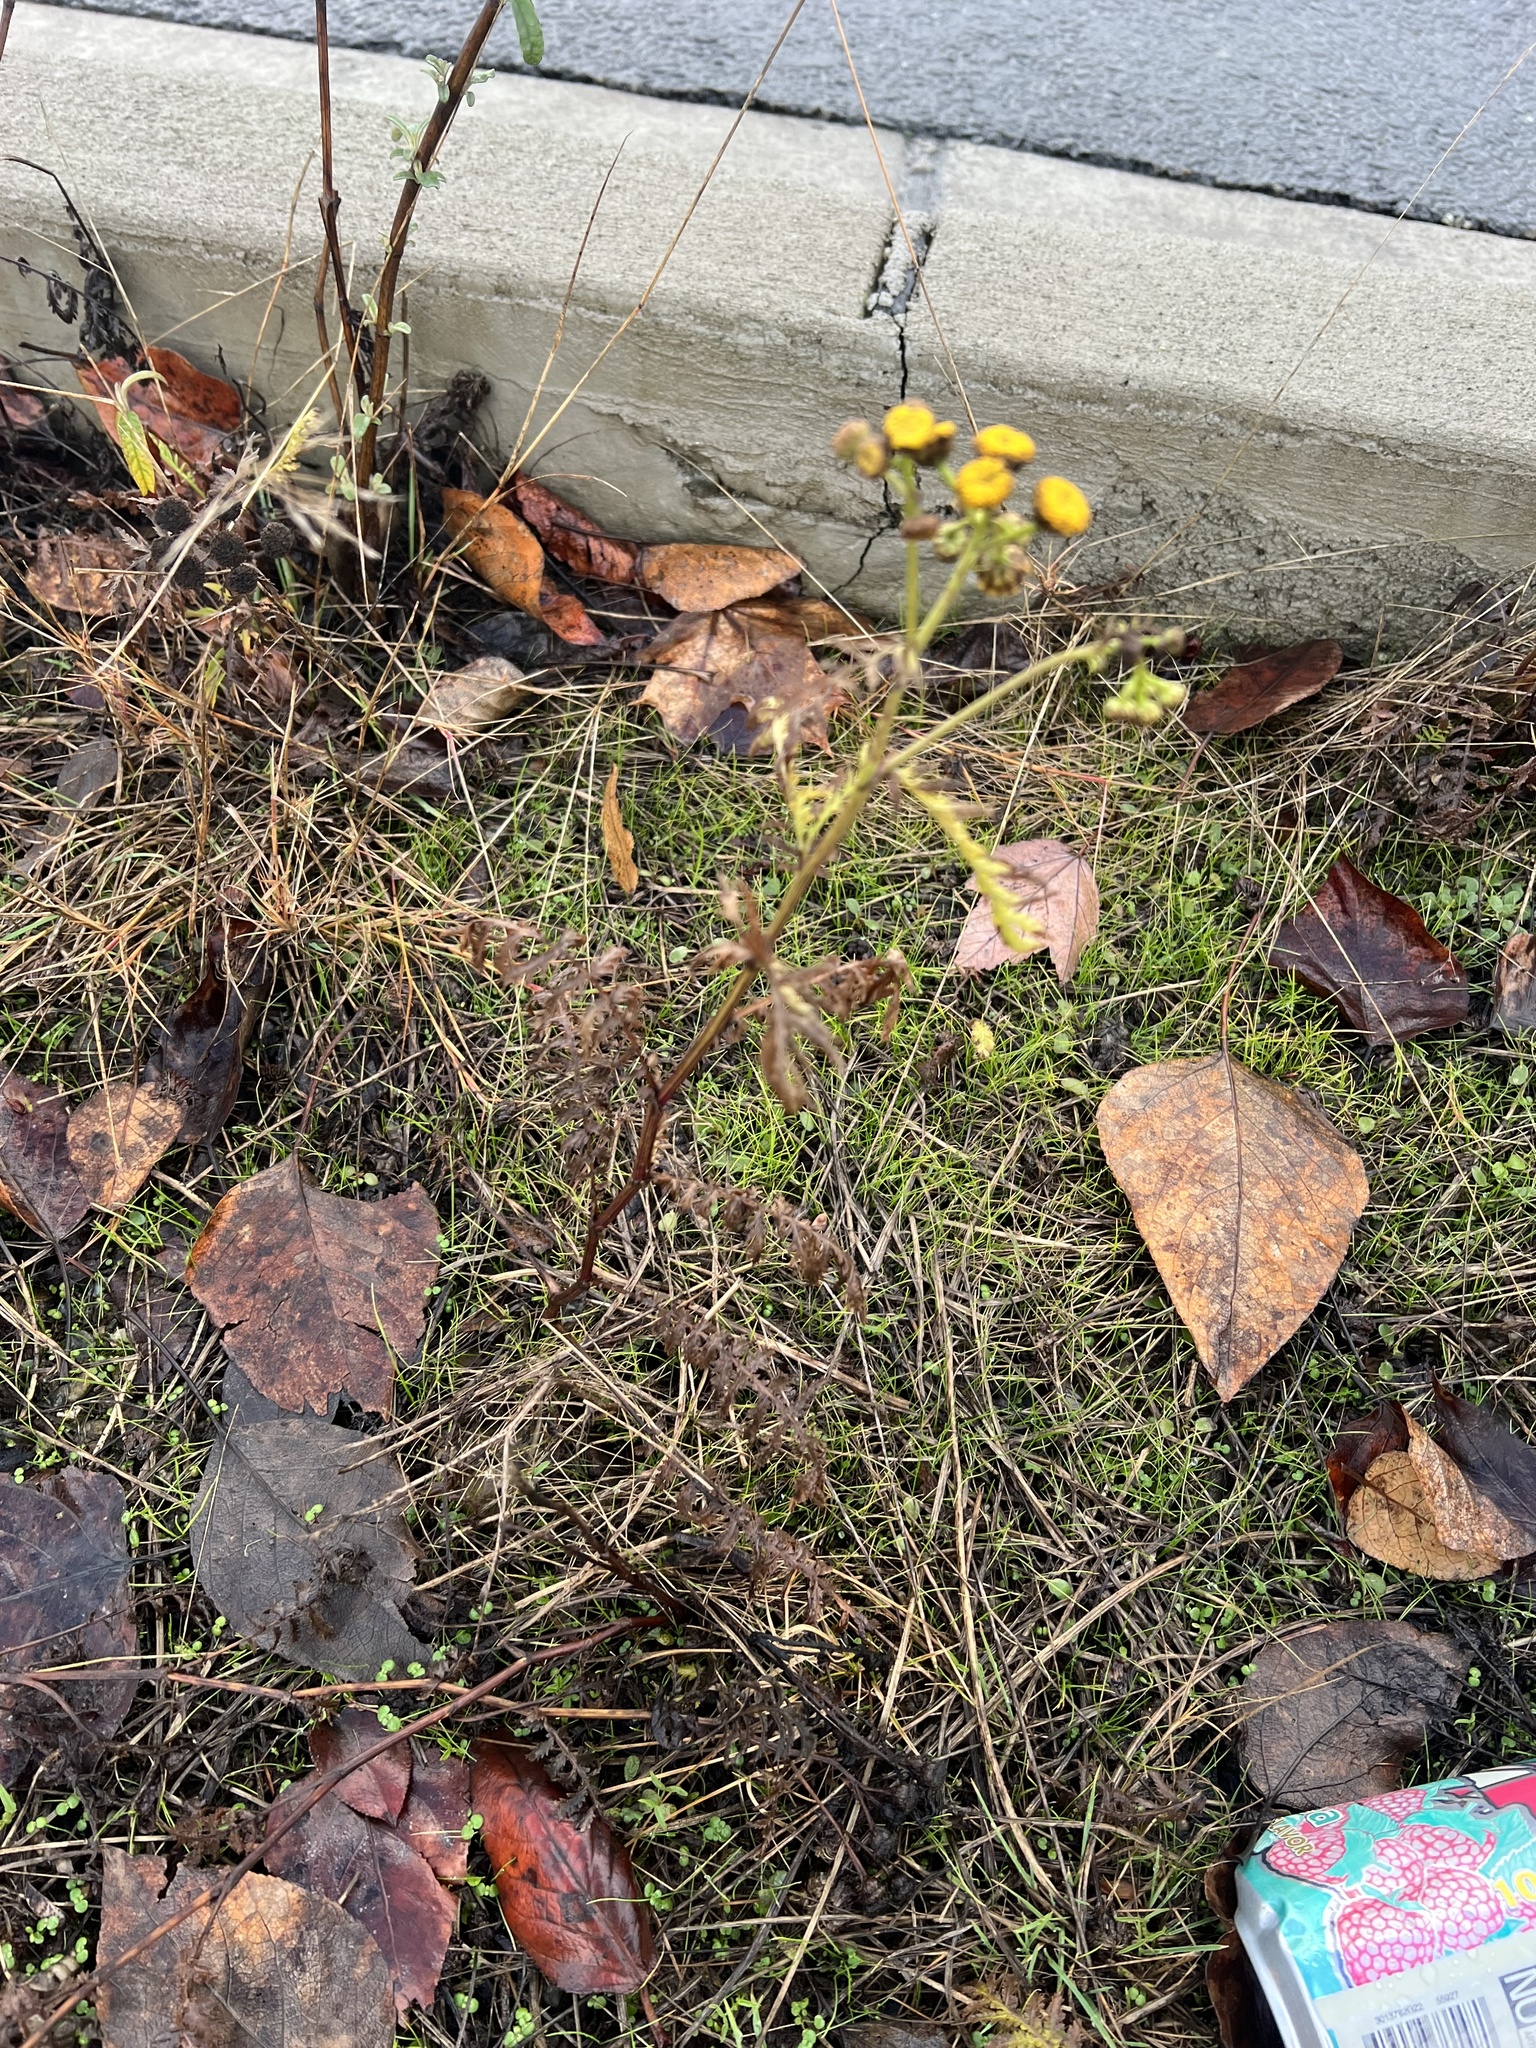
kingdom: Plantae
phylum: Tracheophyta
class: Magnoliopsida
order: Asterales
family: Asteraceae
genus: Tanacetum
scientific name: Tanacetum vulgare
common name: Common tansy
